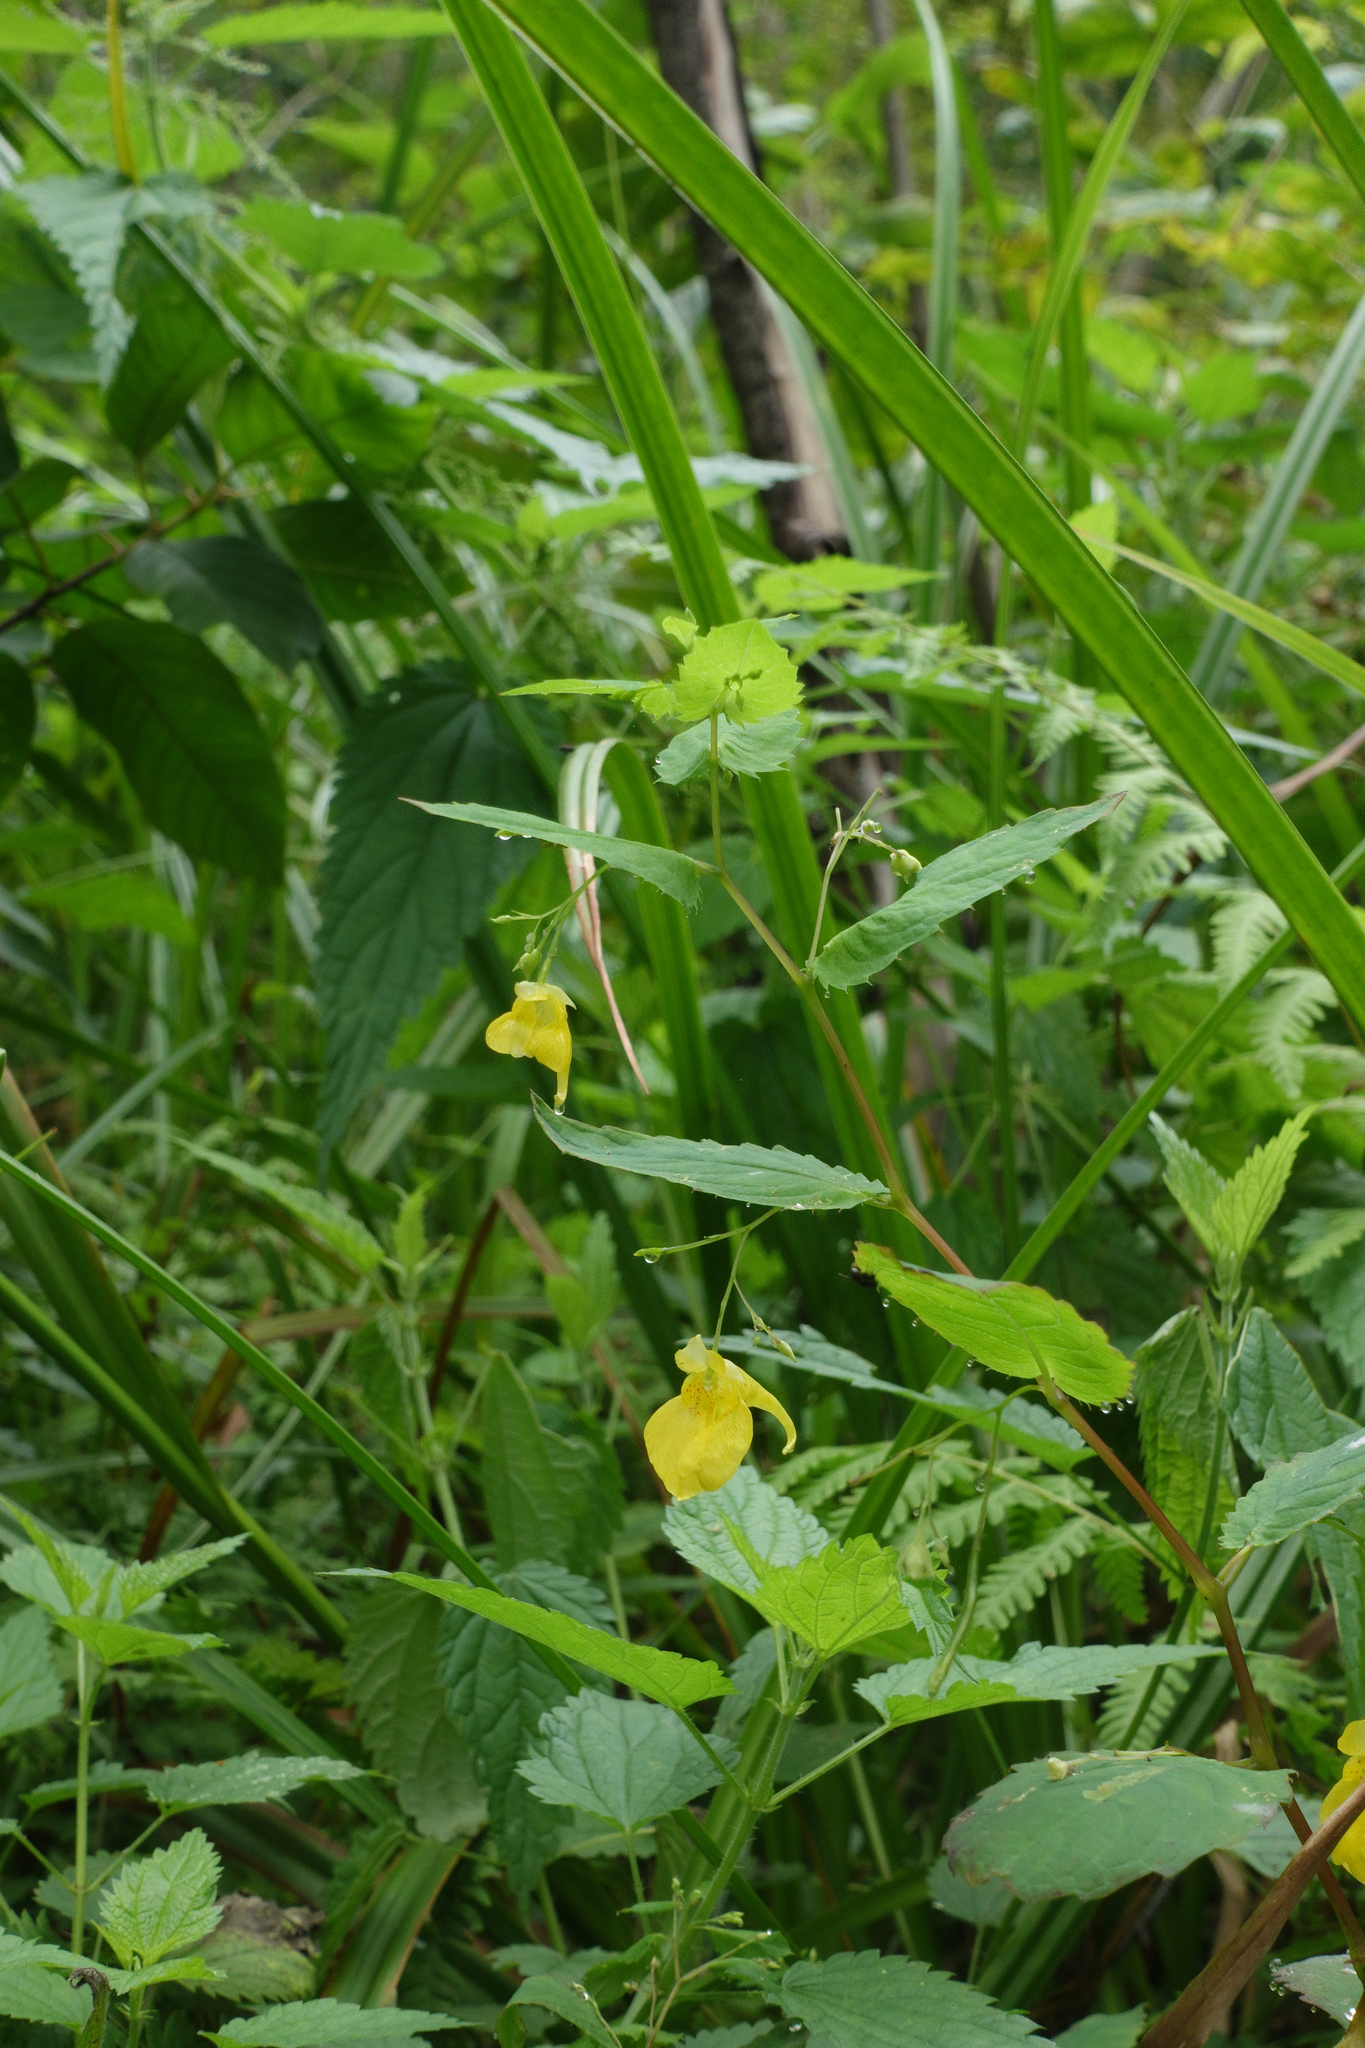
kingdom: Plantae
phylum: Tracheophyta
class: Magnoliopsida
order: Ericales
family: Balsaminaceae
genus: Impatiens
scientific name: Impatiens noli-tangere
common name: Touch-me-not balsam
